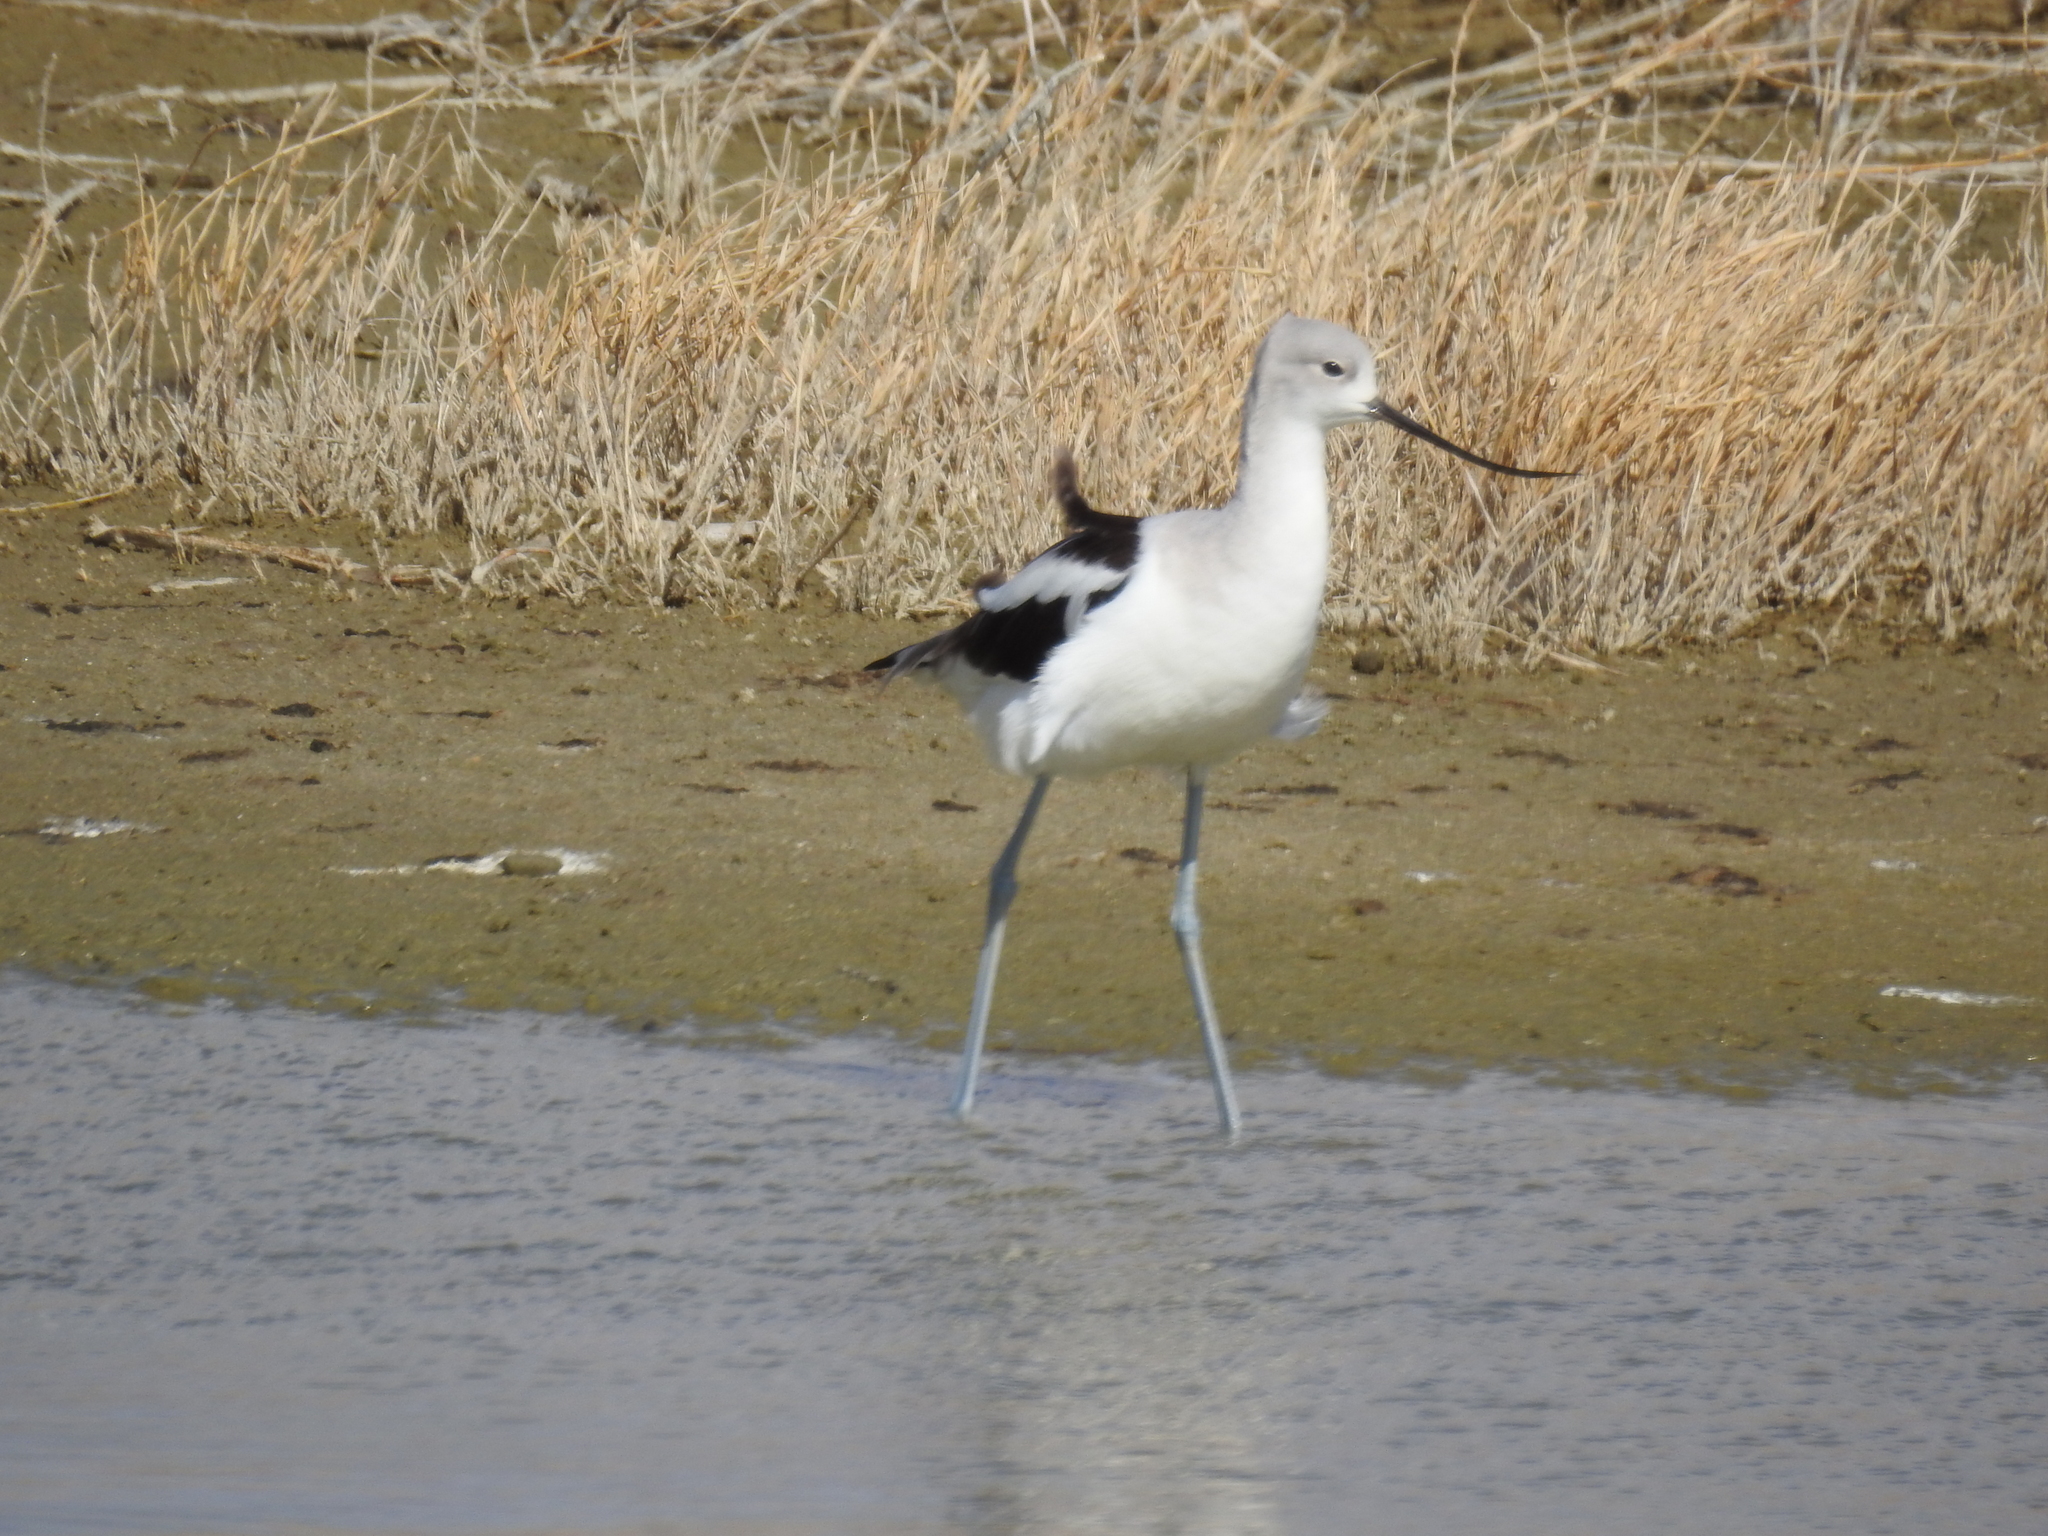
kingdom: Animalia
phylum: Chordata
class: Aves
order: Charadriiformes
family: Recurvirostridae
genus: Recurvirostra
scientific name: Recurvirostra americana
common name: American avocet
